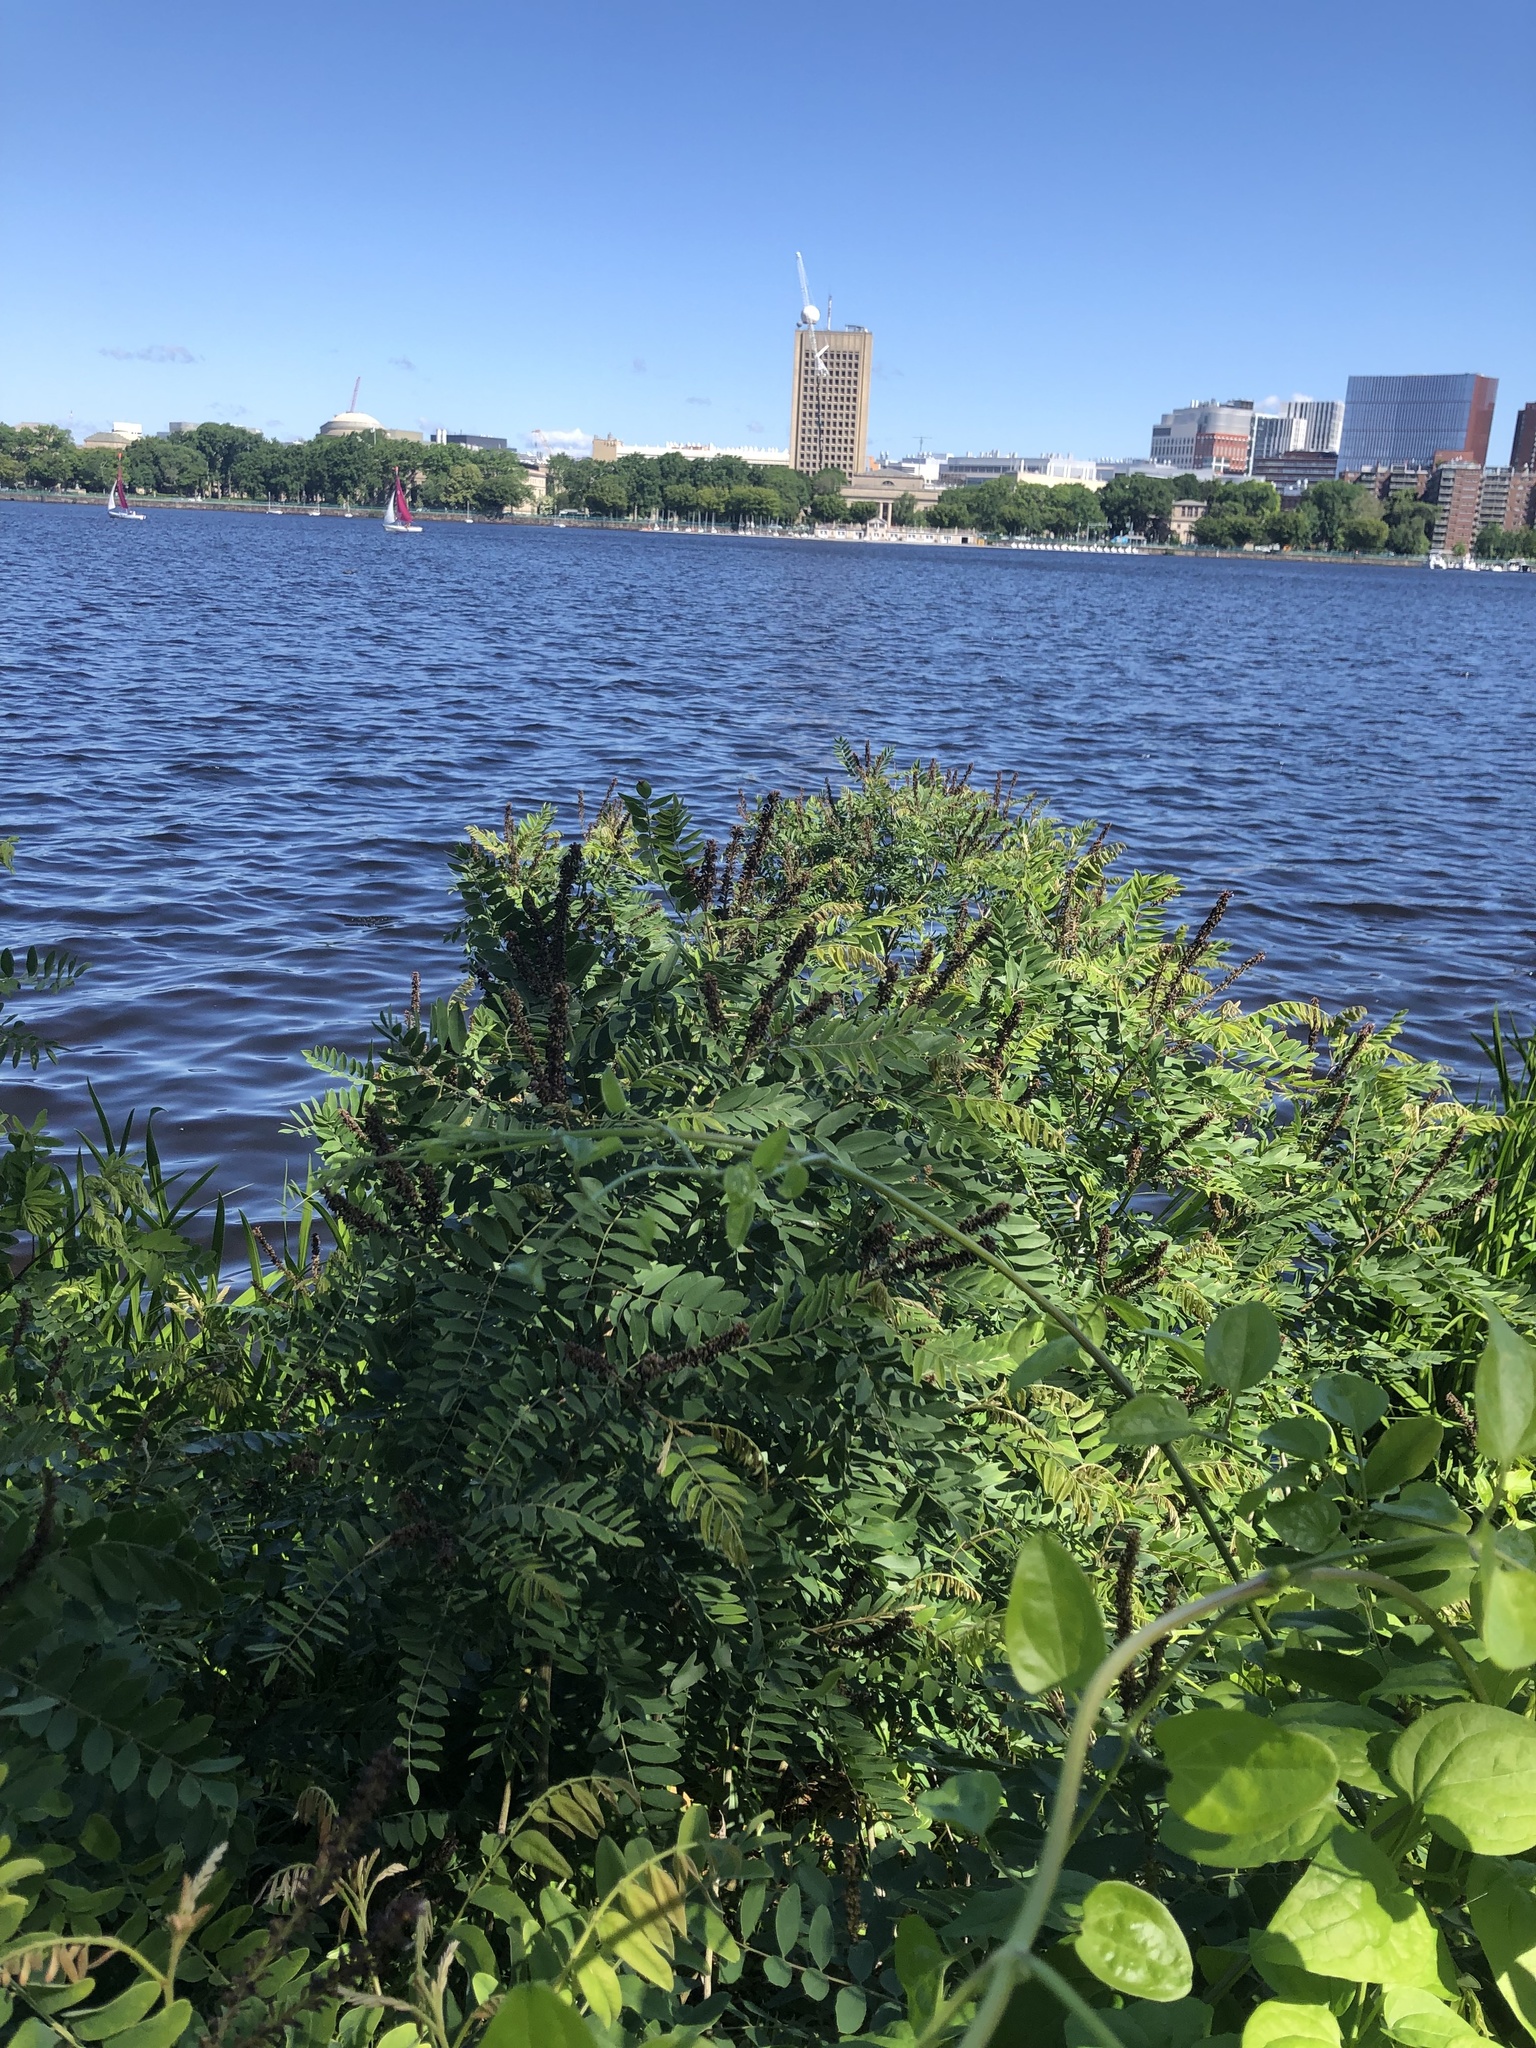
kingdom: Plantae
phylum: Tracheophyta
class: Magnoliopsida
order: Fabales
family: Fabaceae
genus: Amorpha
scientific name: Amorpha fruticosa
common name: False indigo
